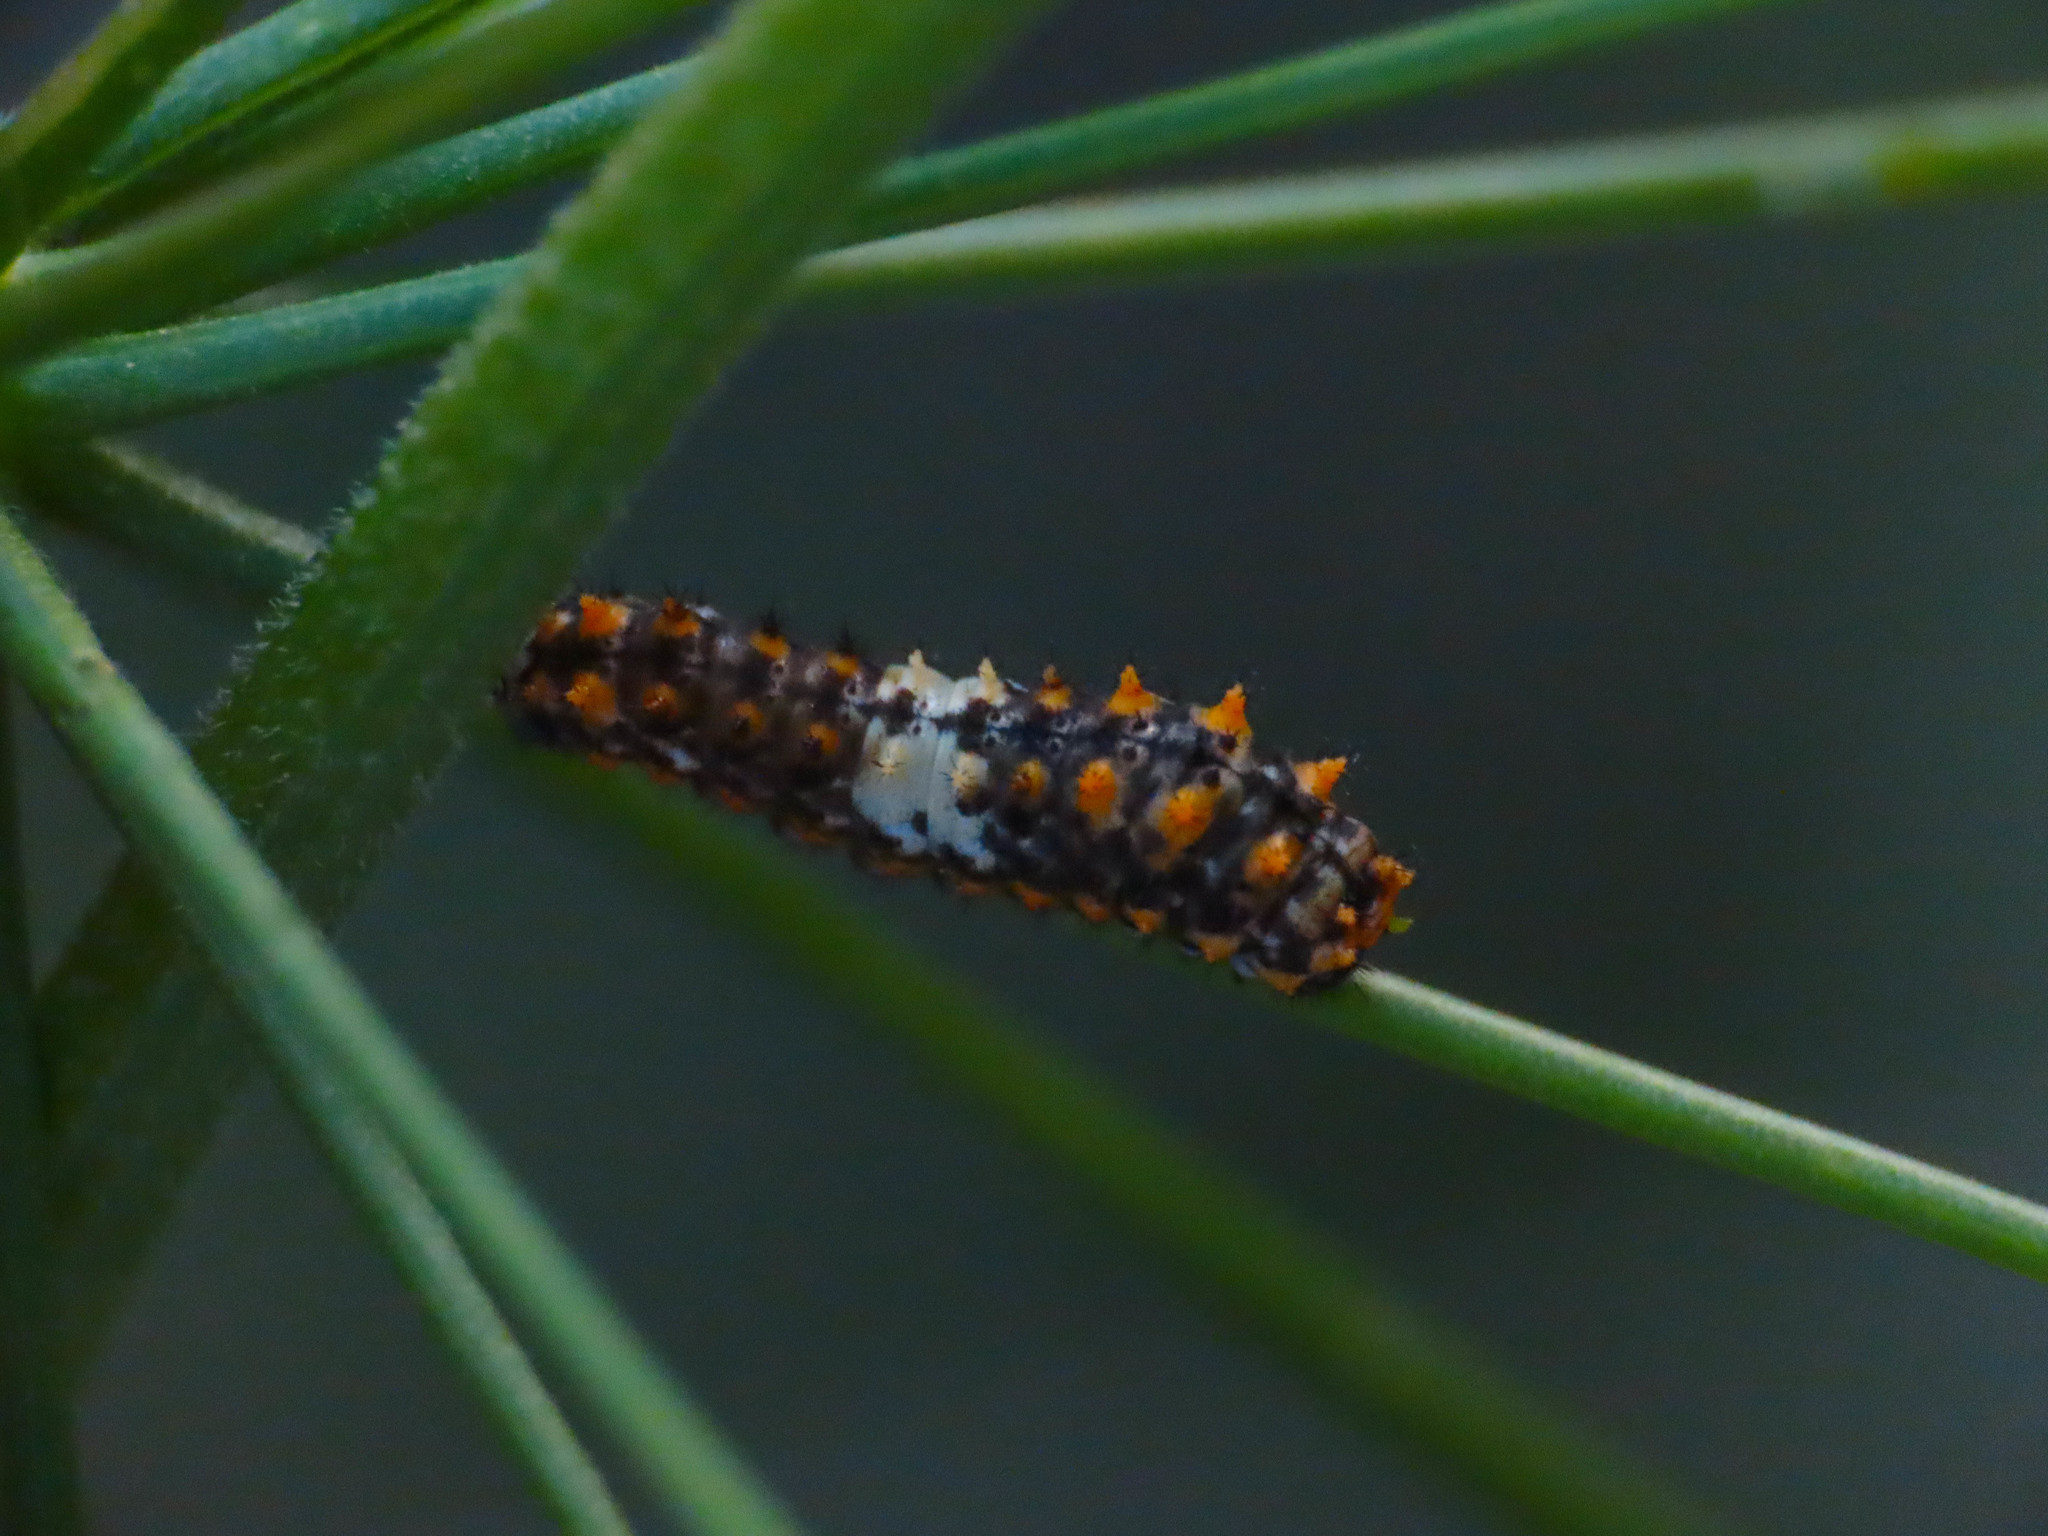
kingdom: Animalia
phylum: Arthropoda
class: Insecta
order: Lepidoptera
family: Papilionidae
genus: Papilio
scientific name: Papilio machaon
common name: Swallowtail
